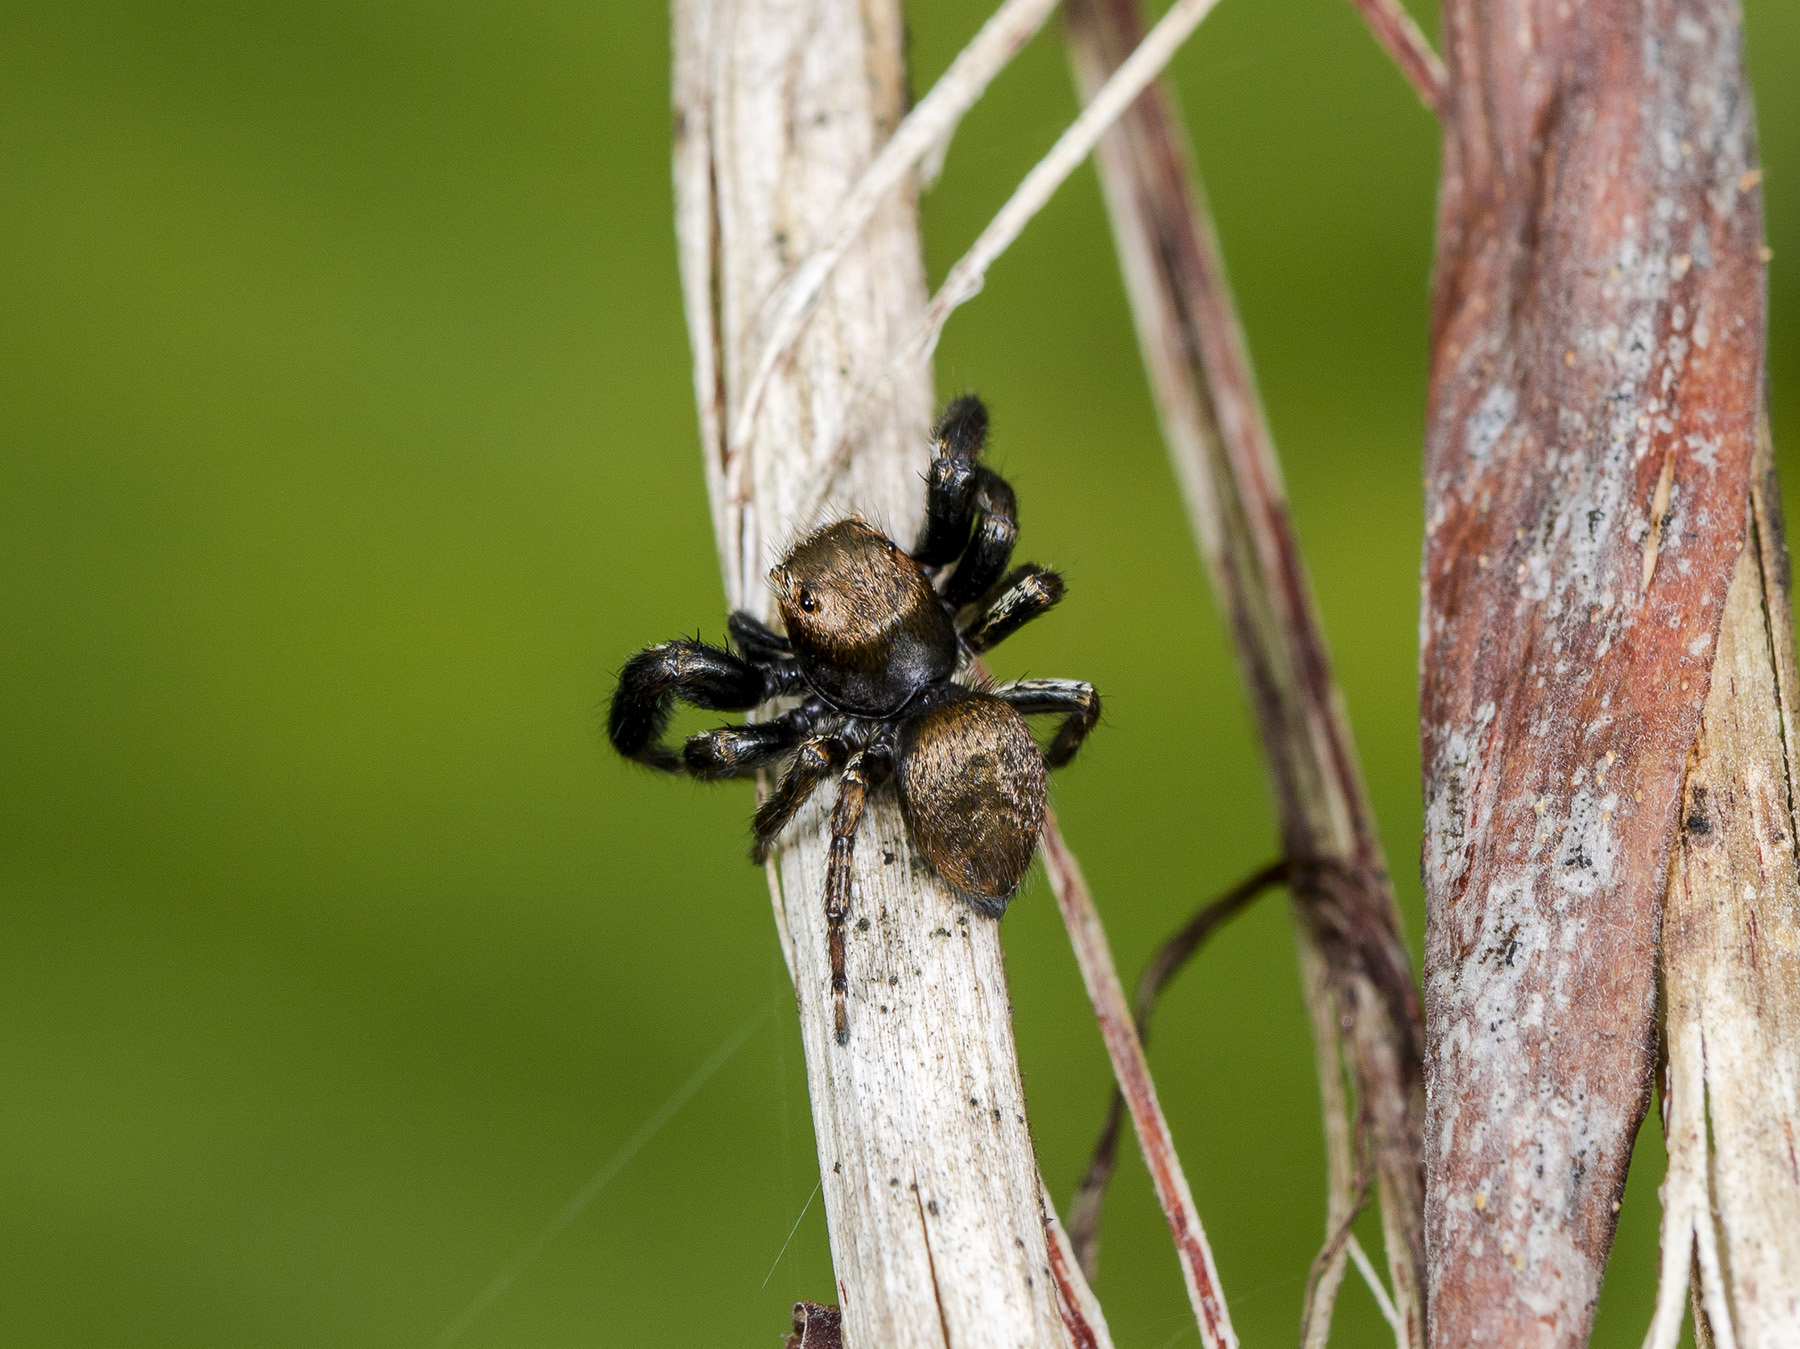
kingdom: Animalia
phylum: Arthropoda
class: Arachnida
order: Araneae
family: Salticidae
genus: Evarcha
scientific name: Evarcha arcuata
